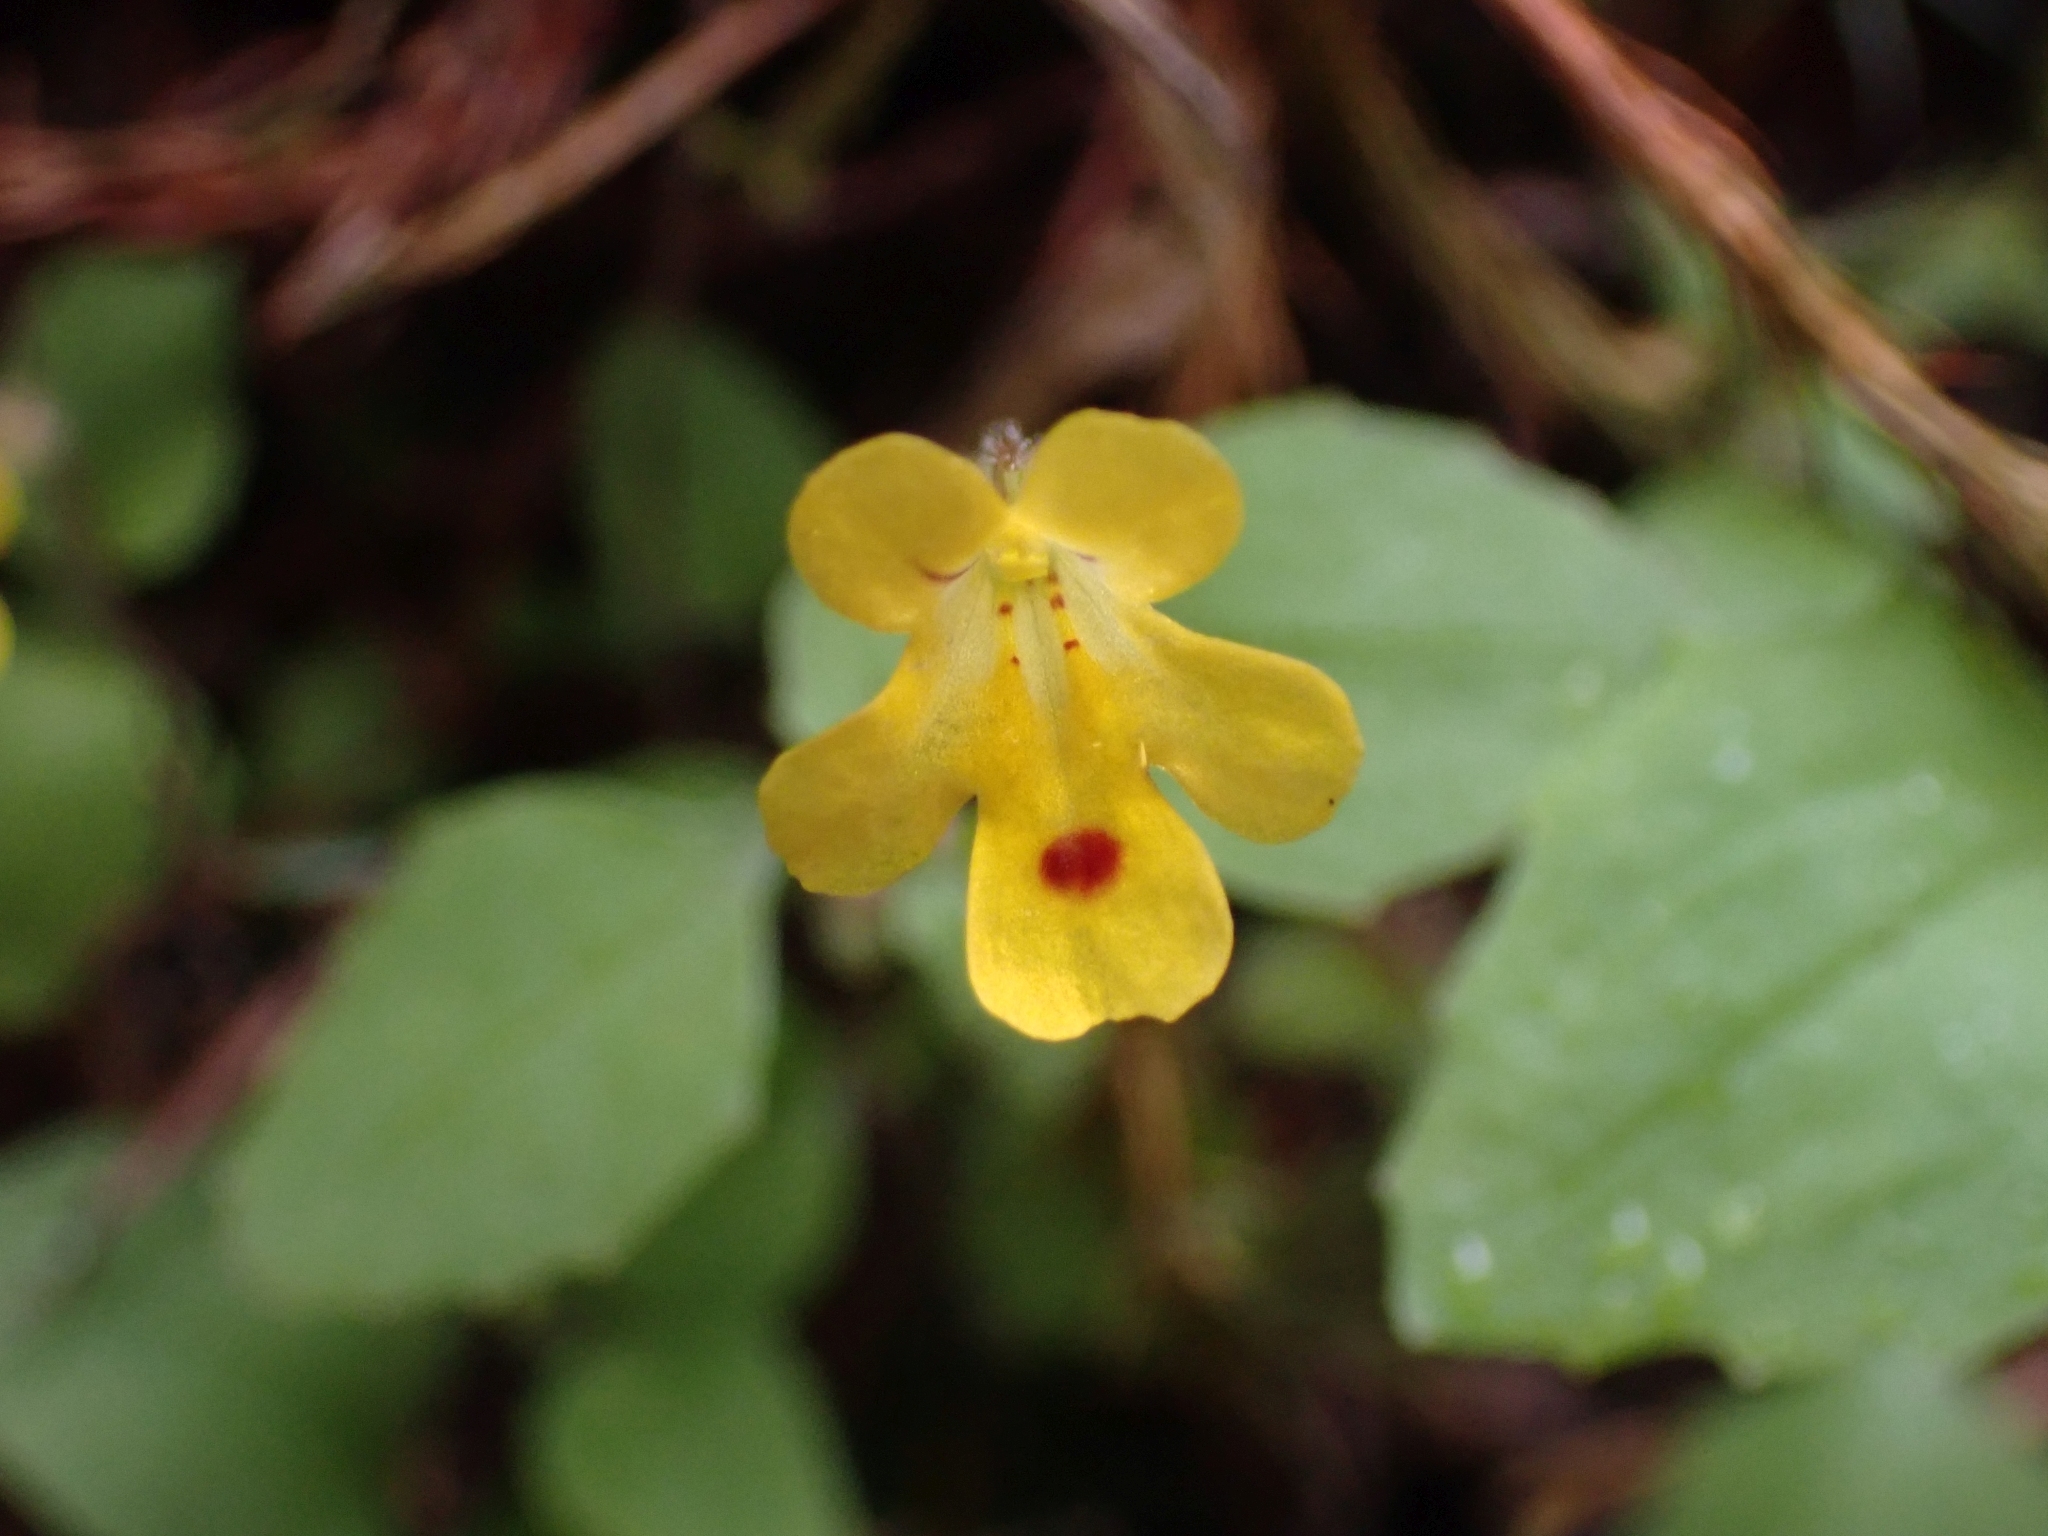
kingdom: Plantae
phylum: Tracheophyta
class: Magnoliopsida
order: Lamiales
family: Phrymaceae
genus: Erythranthe
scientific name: Erythranthe alsinoides
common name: Chickweed monkeyflower
